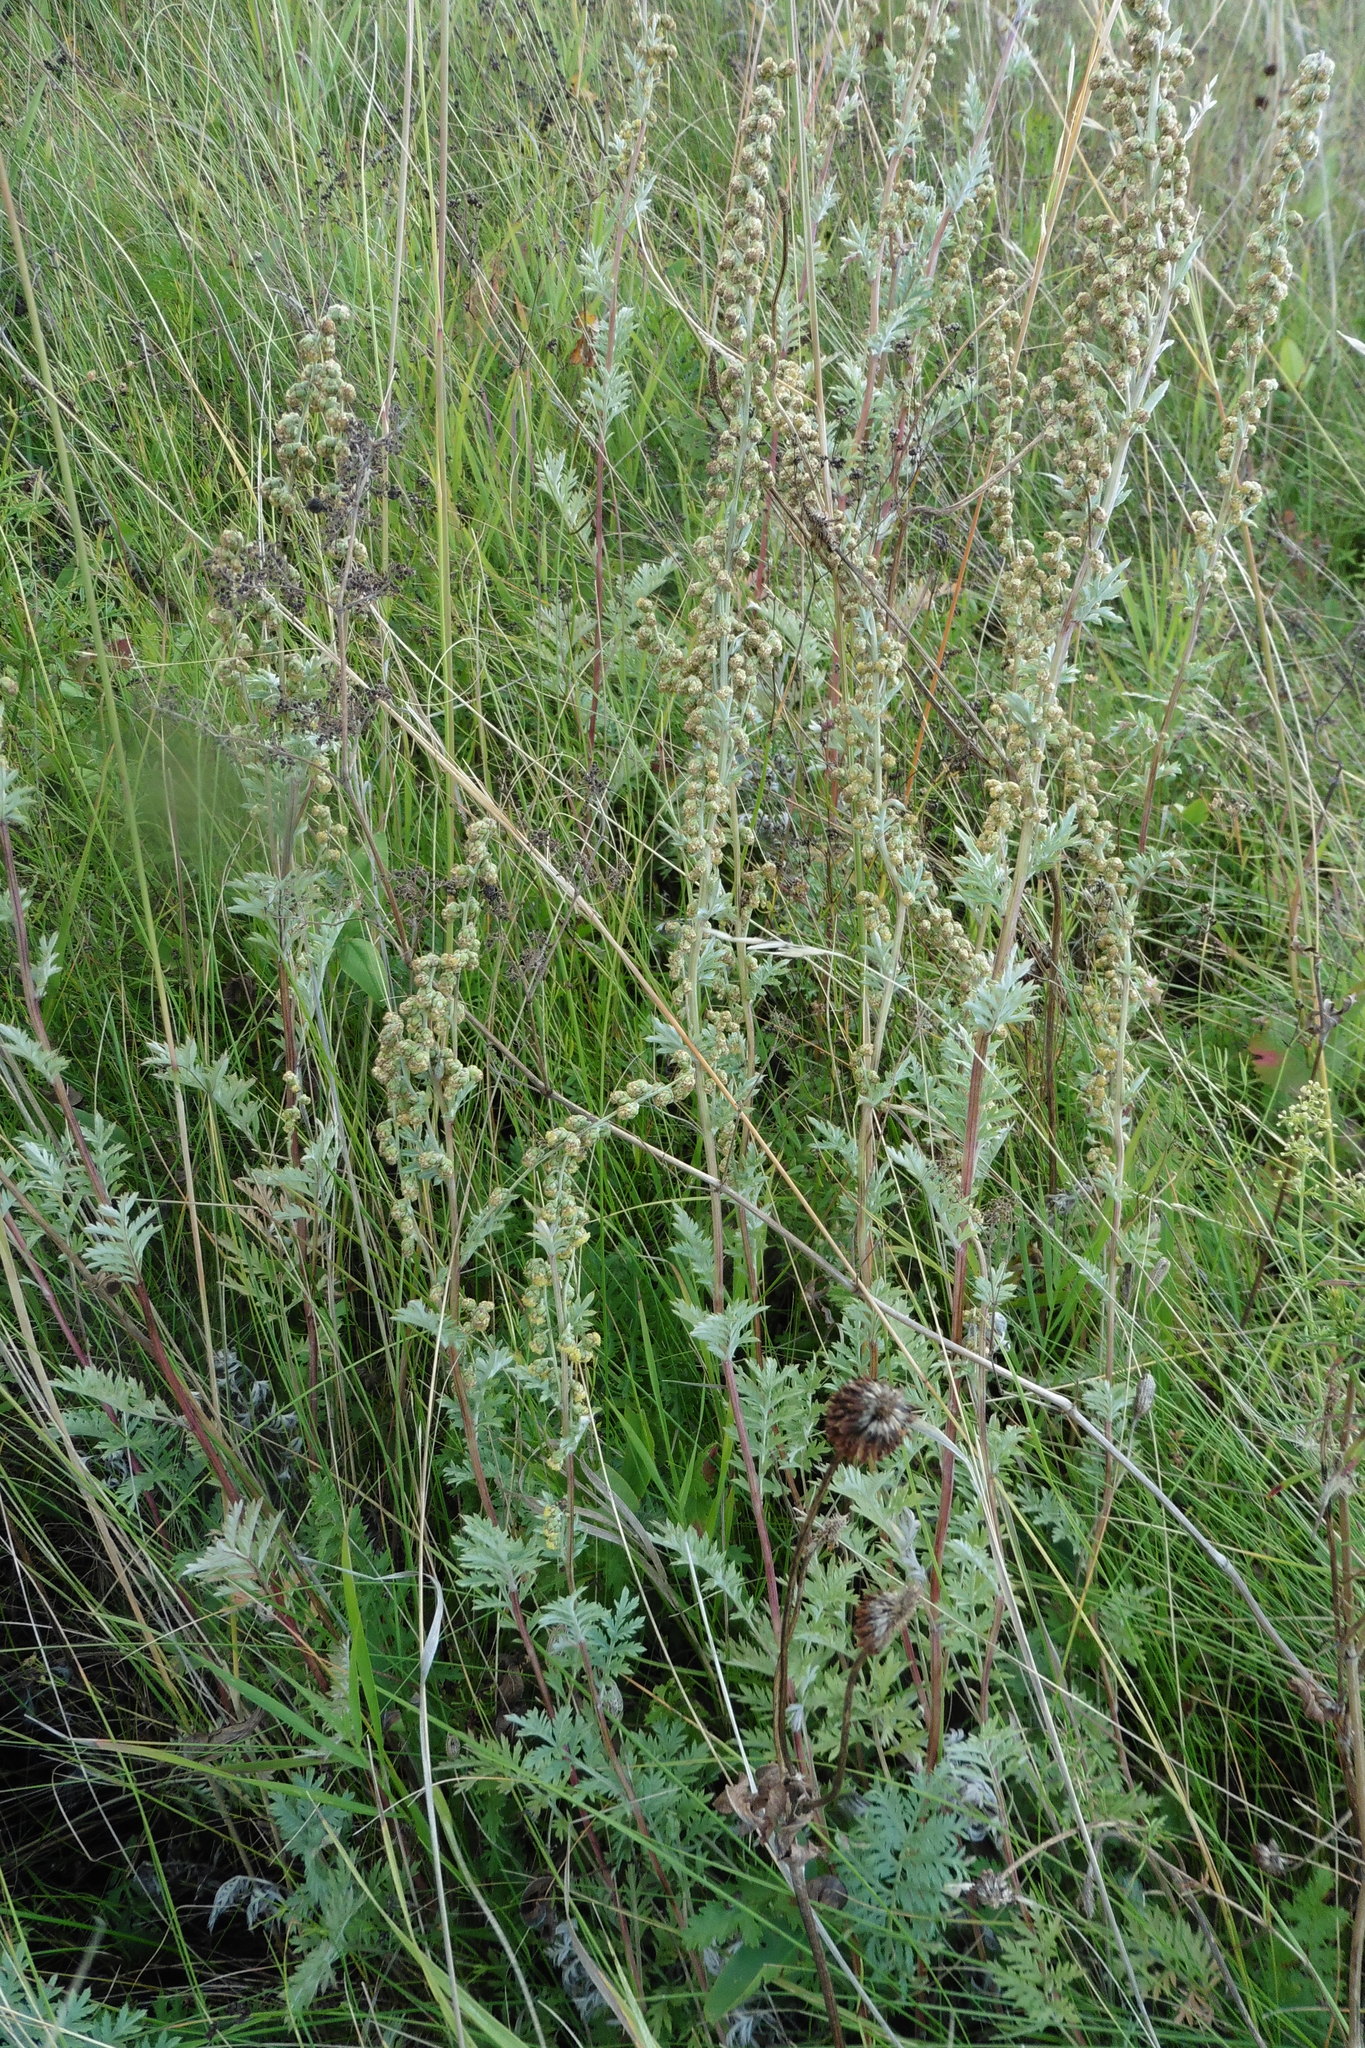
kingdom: Plantae
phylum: Tracheophyta
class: Magnoliopsida
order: Asterales
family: Asteraceae
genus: Artemisia
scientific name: Artemisia armeniaca
